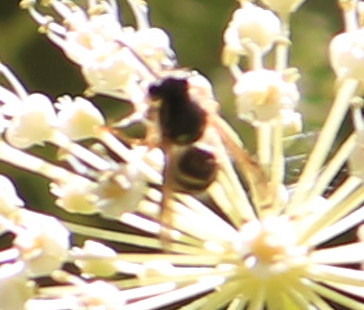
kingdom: Animalia
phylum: Arthropoda
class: Insecta
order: Hymenoptera
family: Vespidae
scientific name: Vespidae
